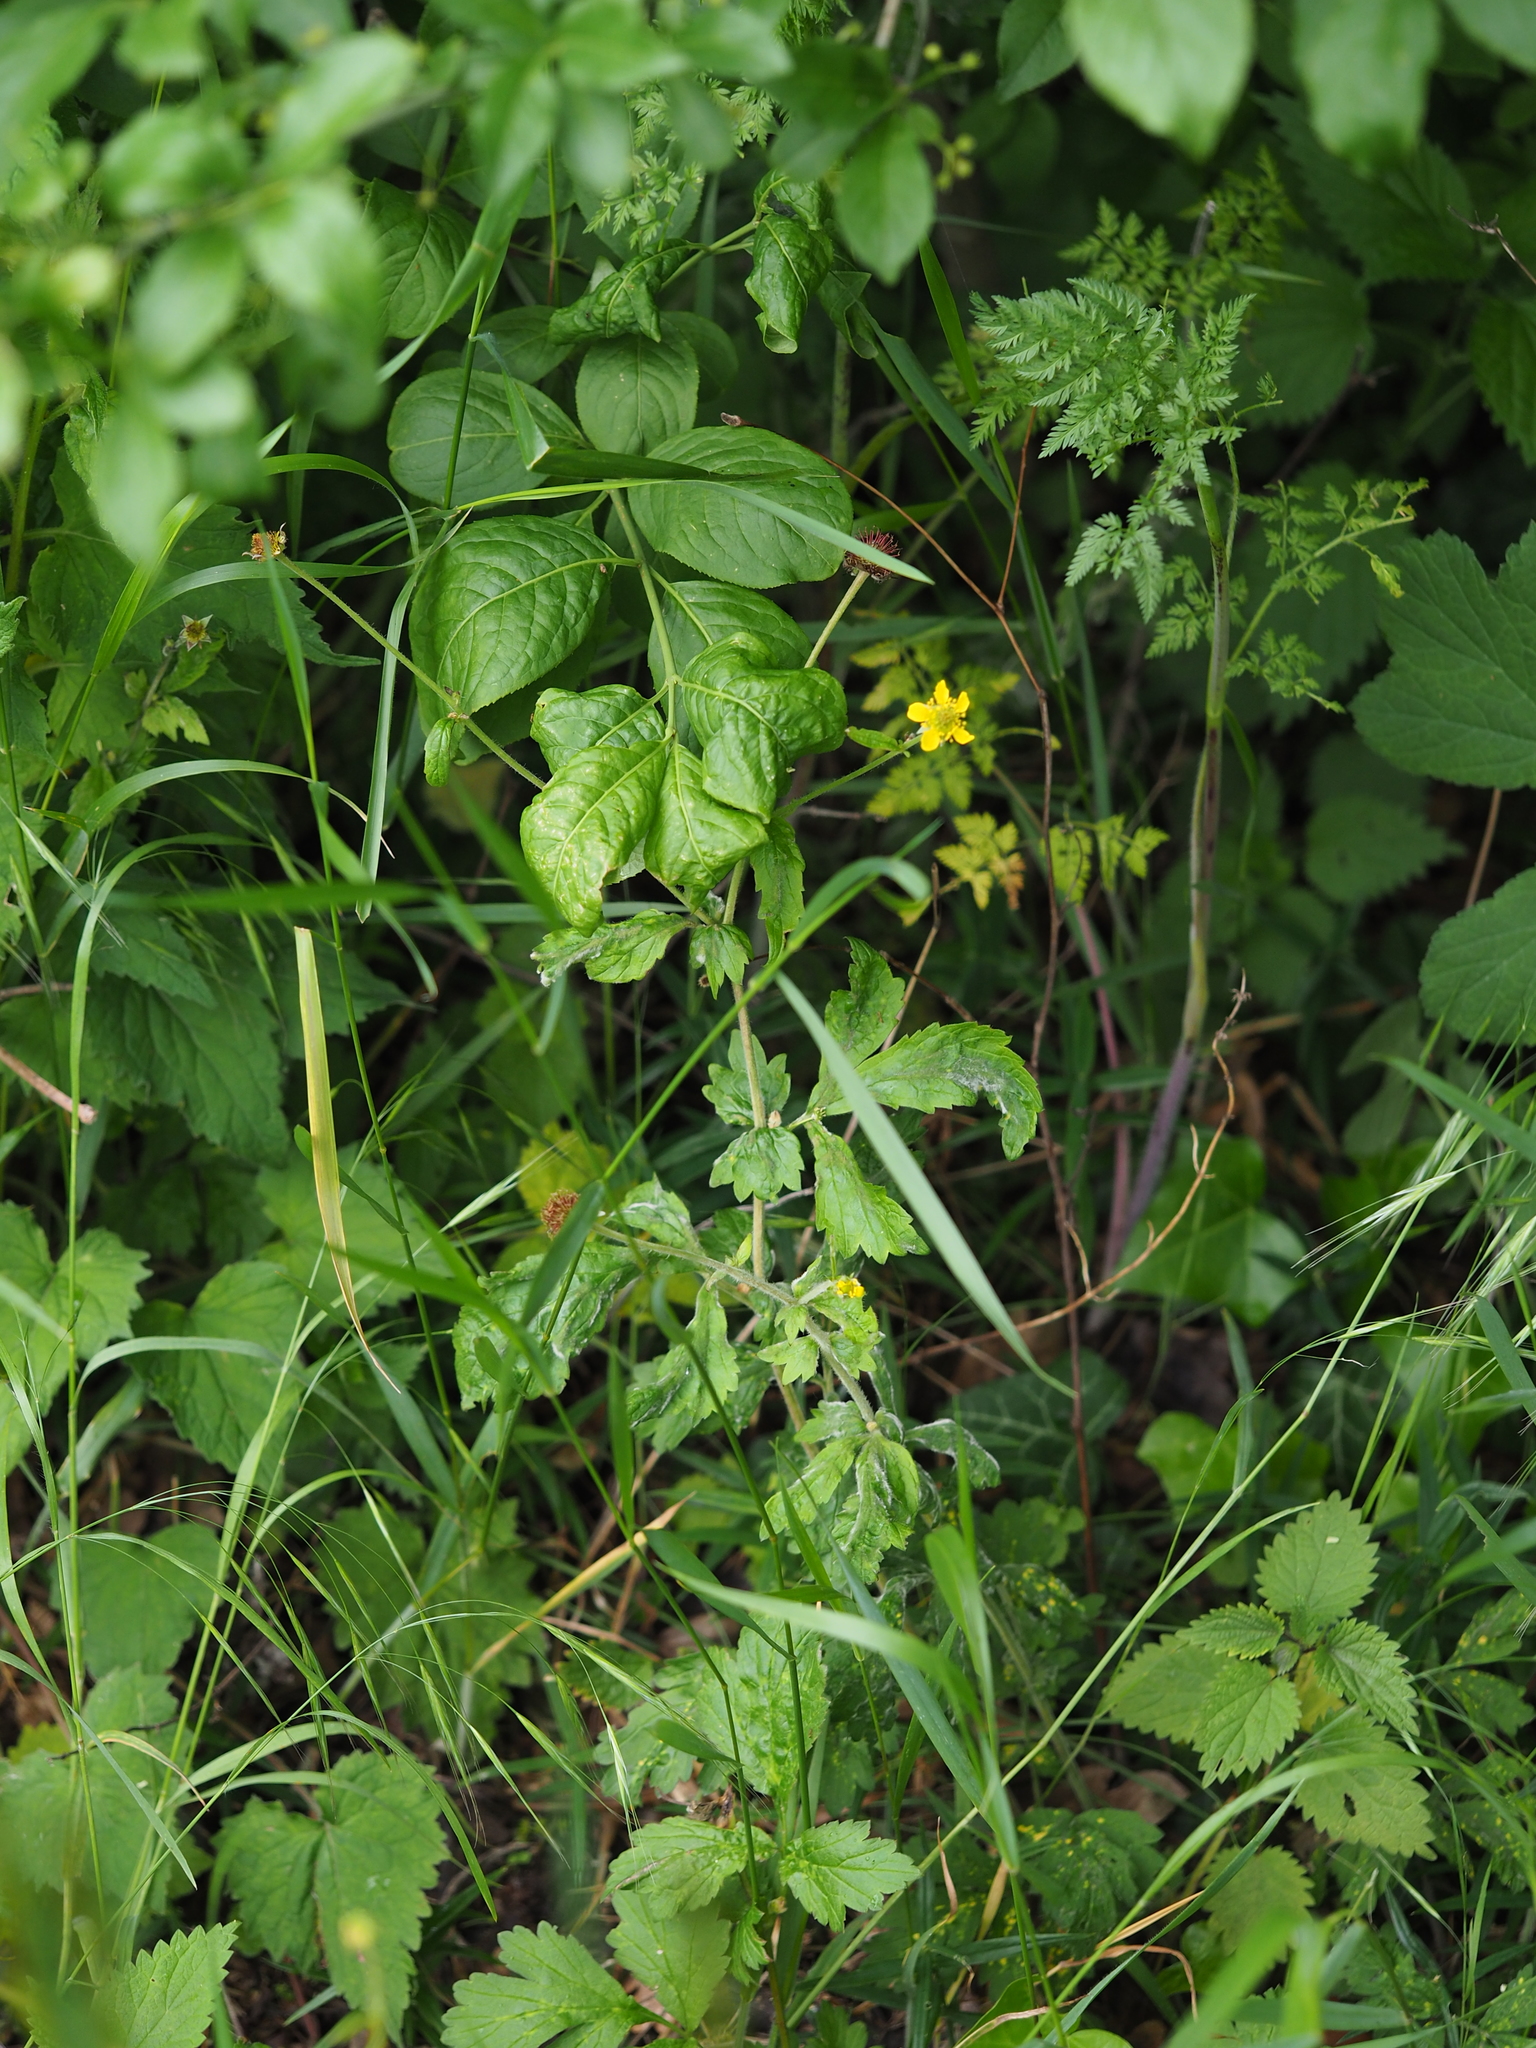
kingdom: Plantae
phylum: Tracheophyta
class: Magnoliopsida
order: Rosales
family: Rosaceae
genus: Geum
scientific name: Geum urbanum
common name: Wood avens
